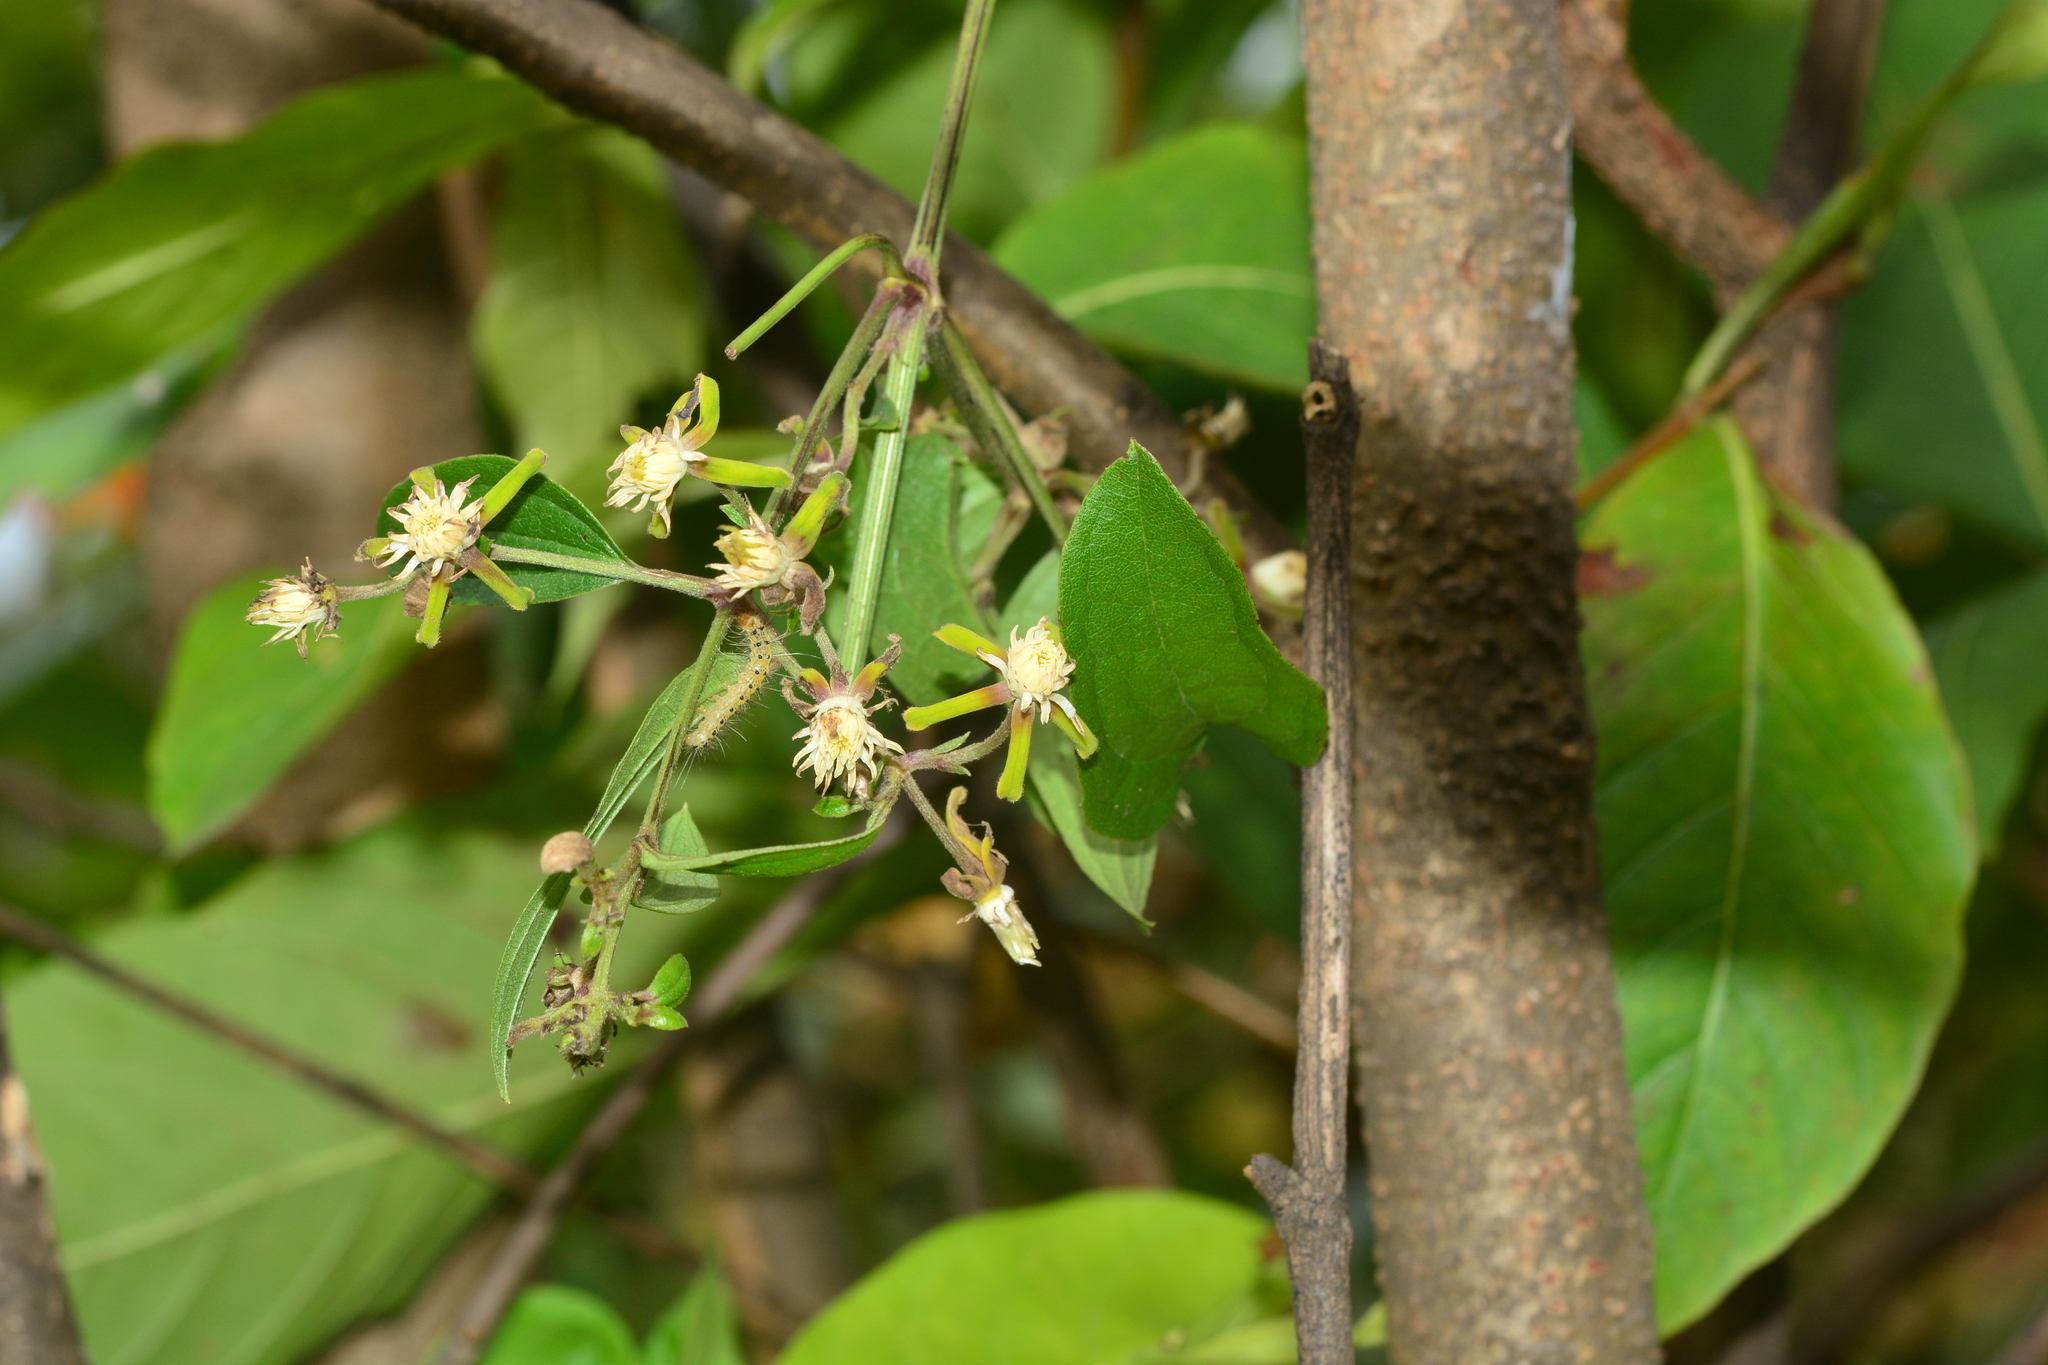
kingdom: Plantae
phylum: Tracheophyta
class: Magnoliopsida
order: Ranunculales
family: Ranunculaceae
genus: Clematis
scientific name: Clematis hedysarifolia
